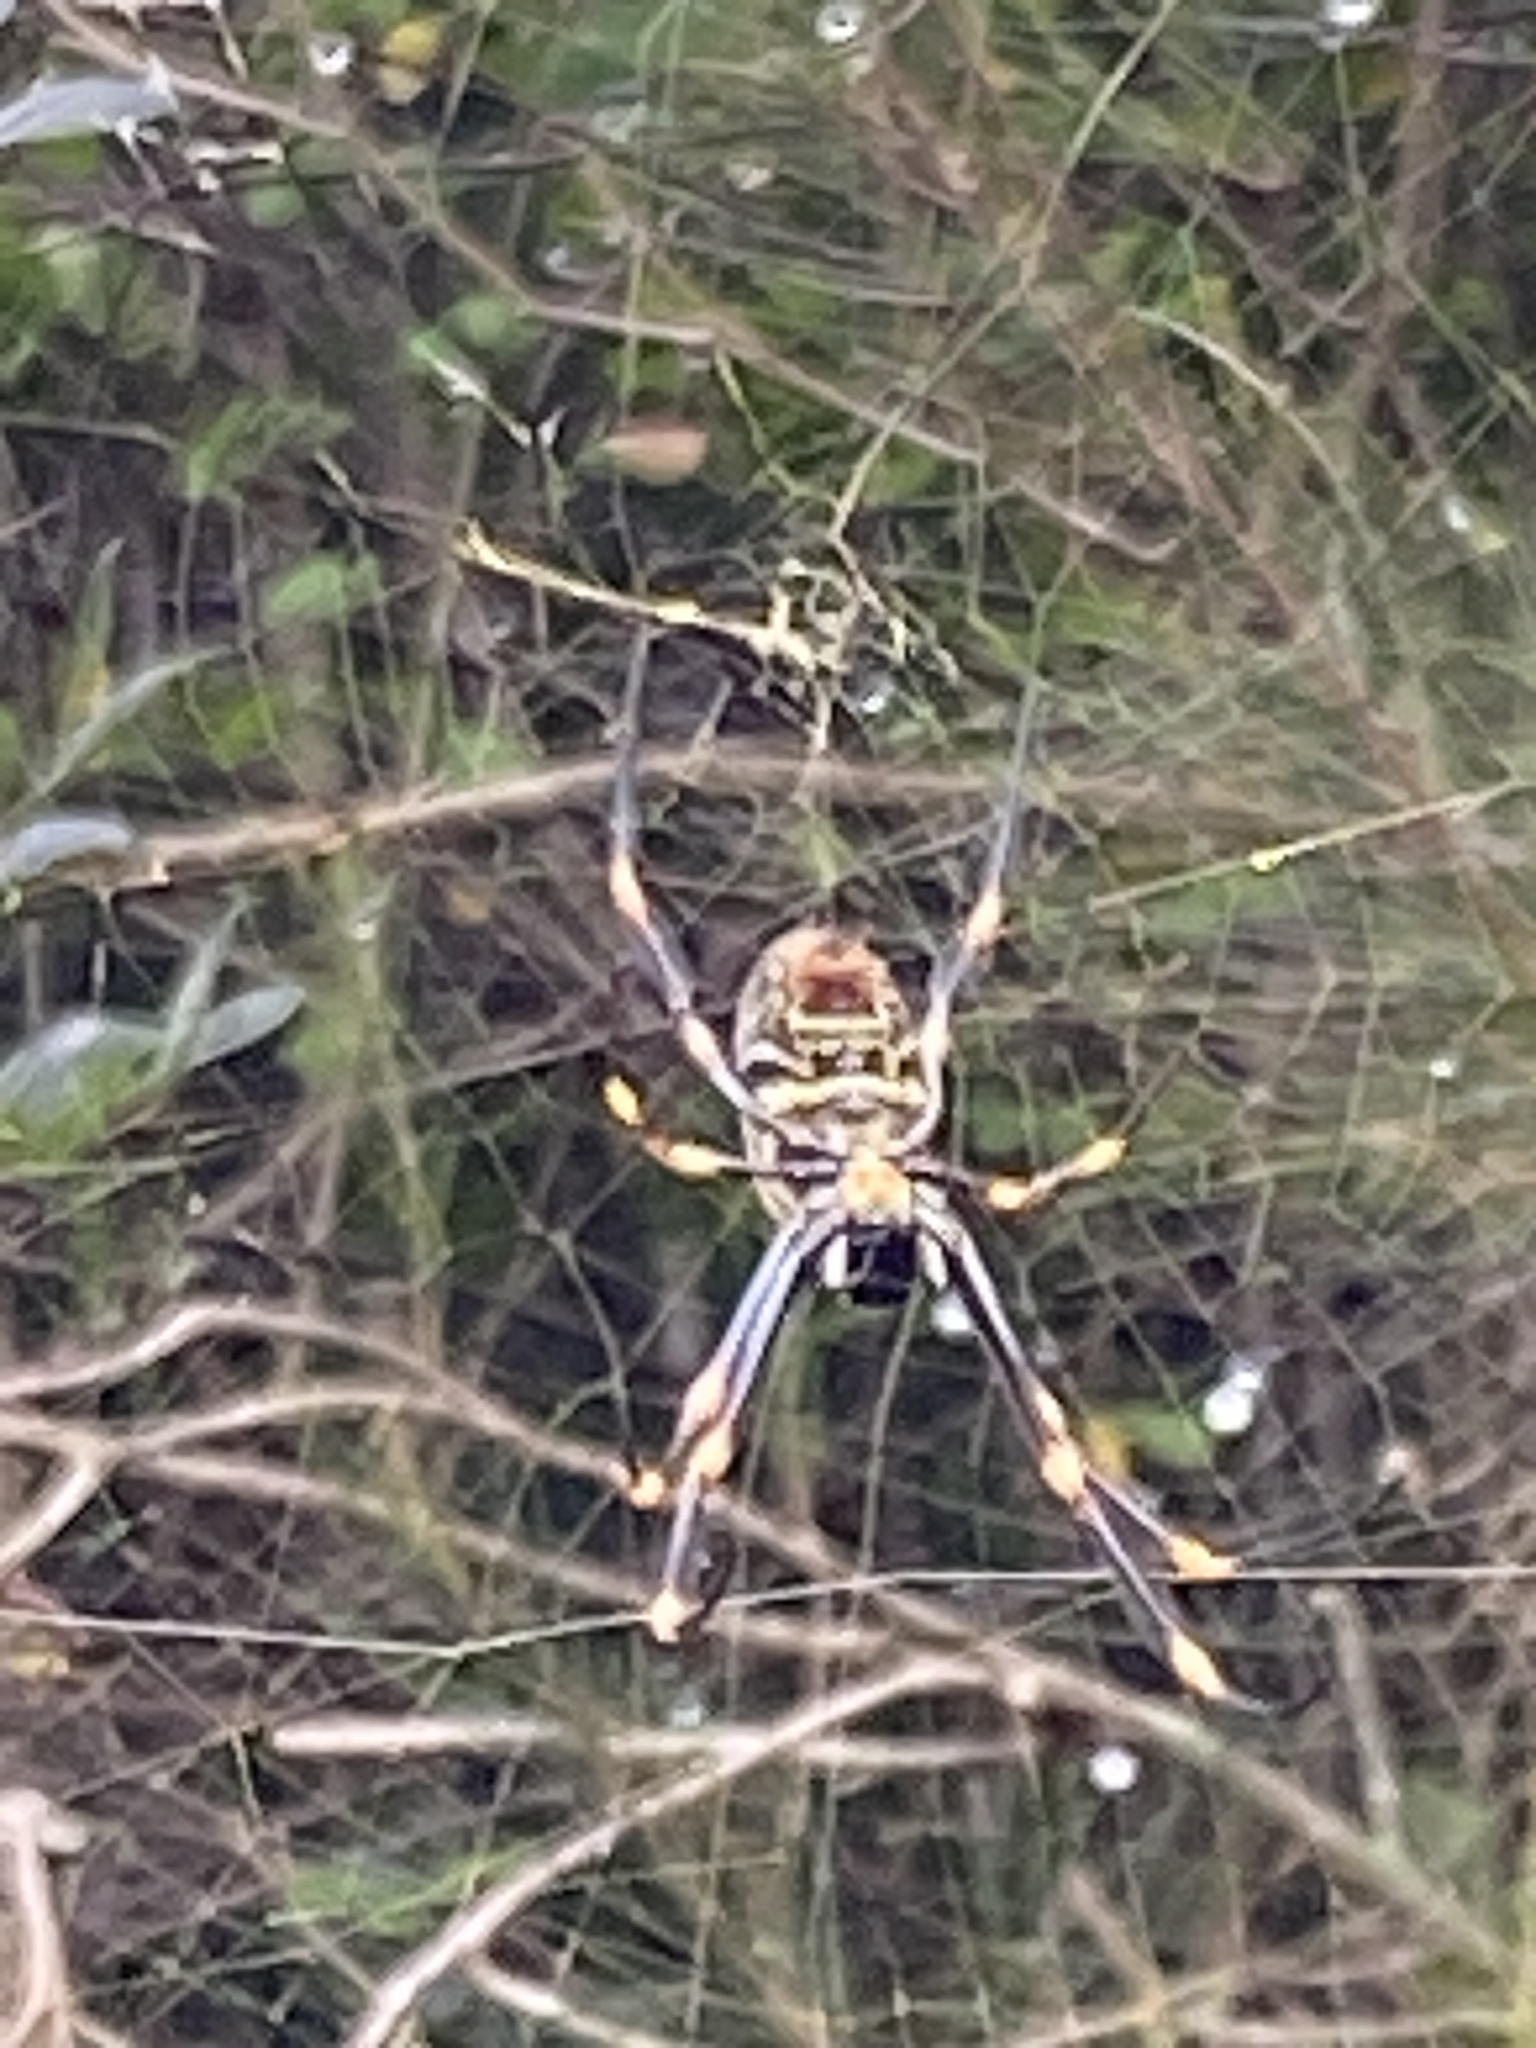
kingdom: Animalia
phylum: Arthropoda
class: Arachnida
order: Araneae
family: Araneidae
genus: Trichonephila
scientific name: Trichonephila plumipes
